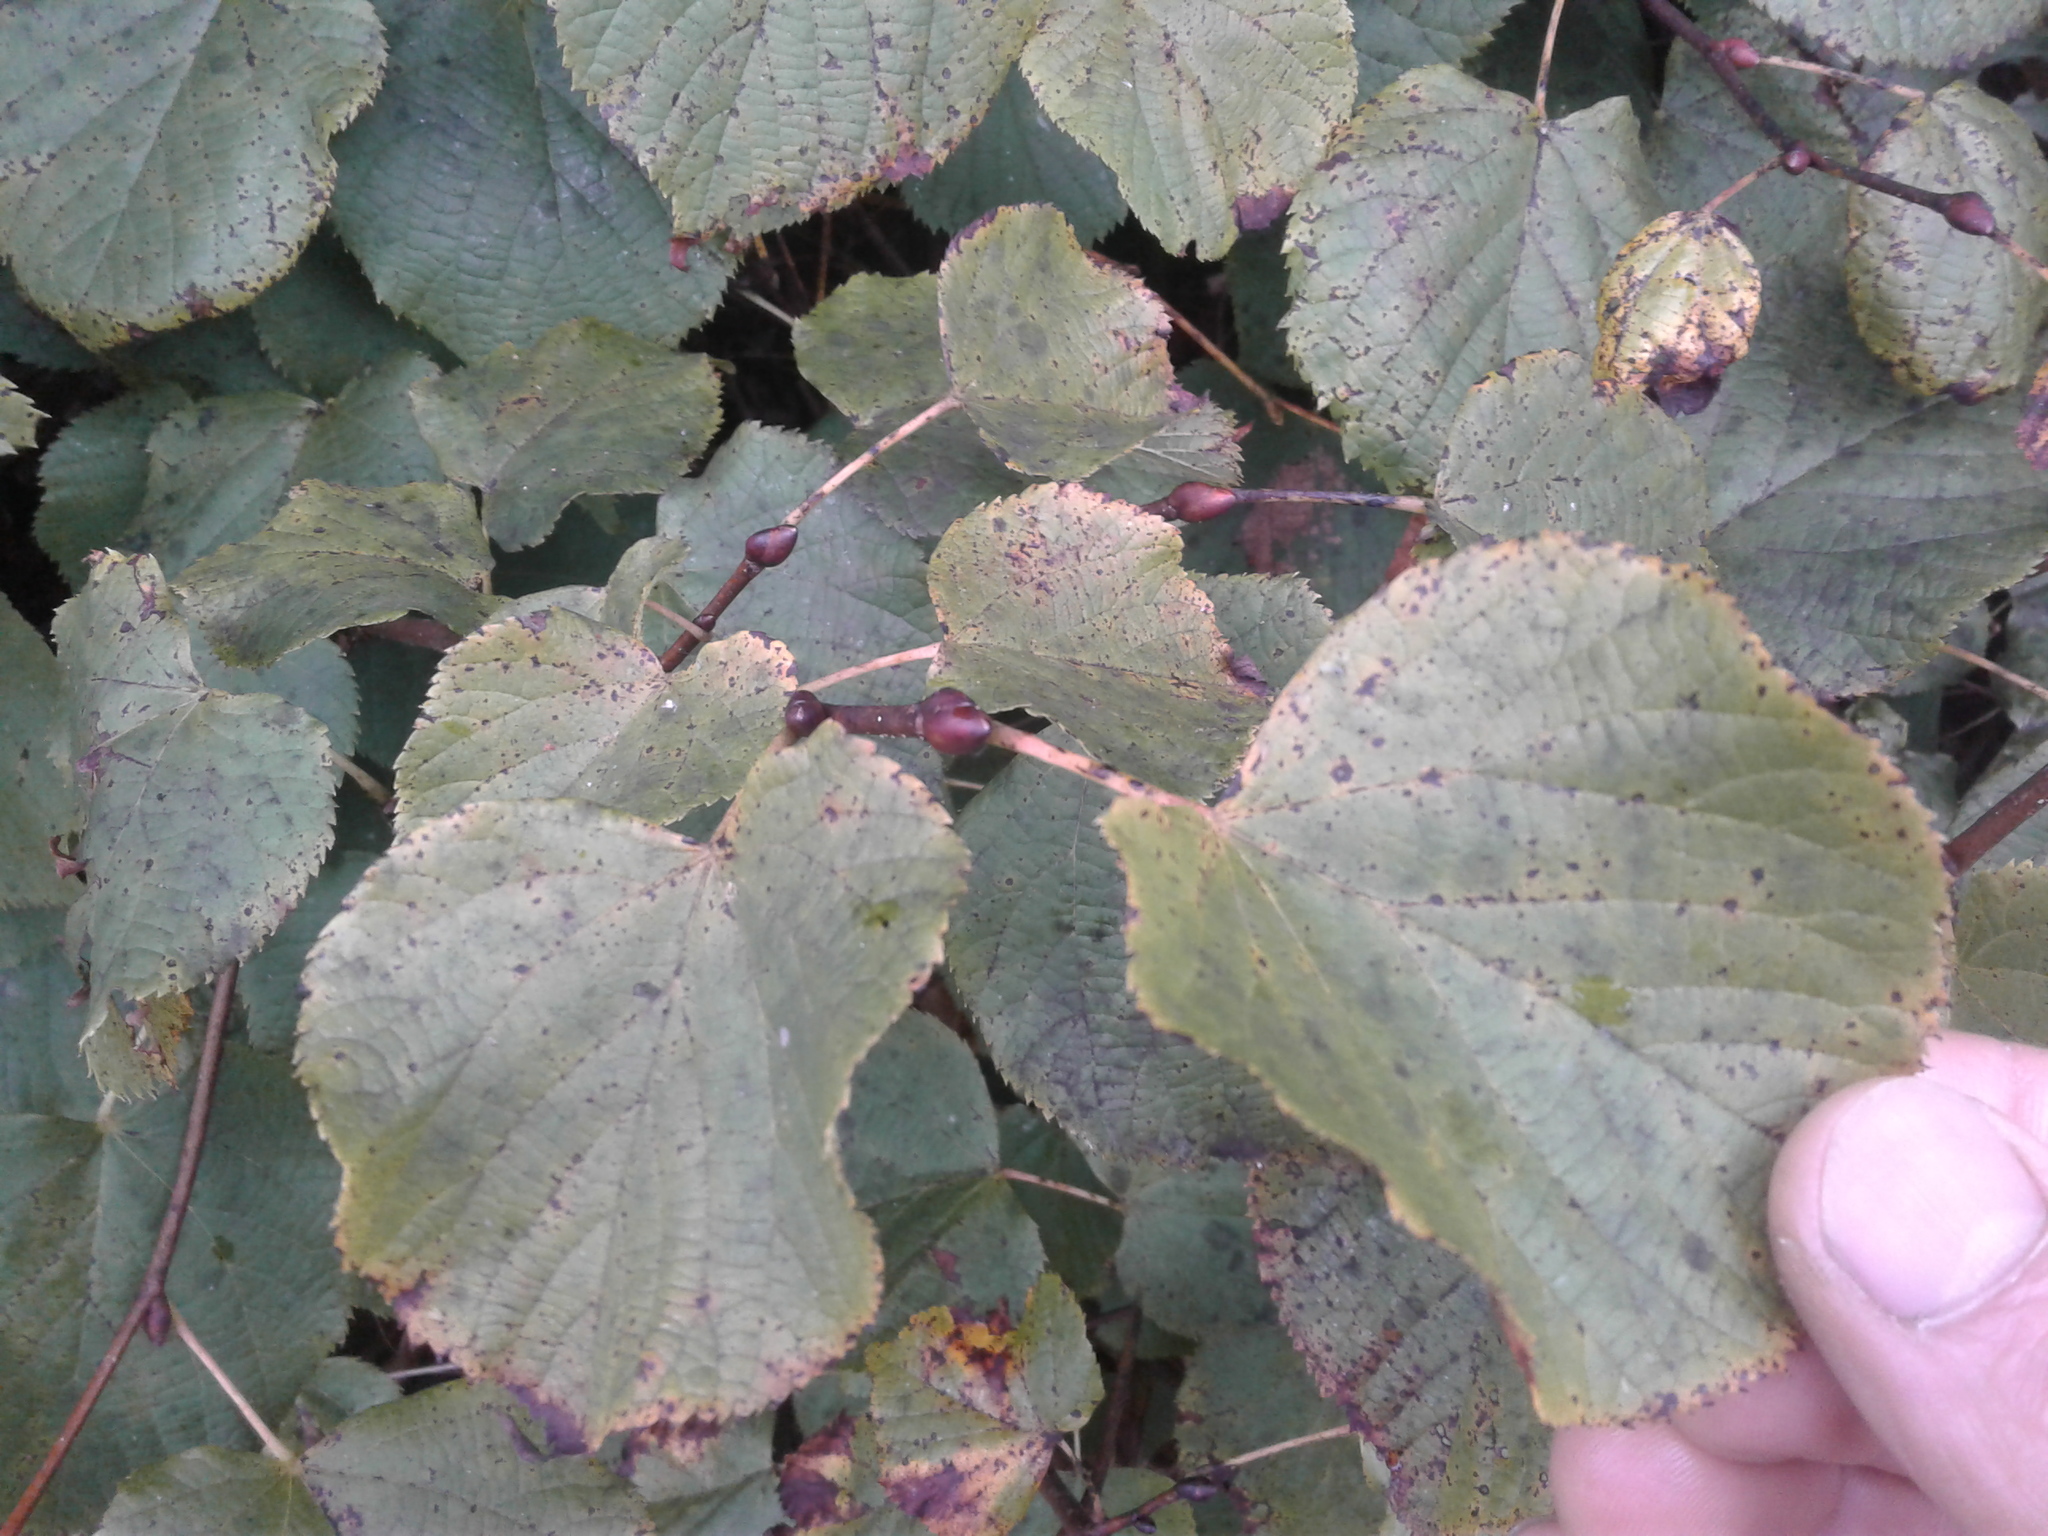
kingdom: Plantae
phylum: Tracheophyta
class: Magnoliopsida
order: Fagales
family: Betulaceae
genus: Alnus
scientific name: Alnus cordata
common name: Italian alder
